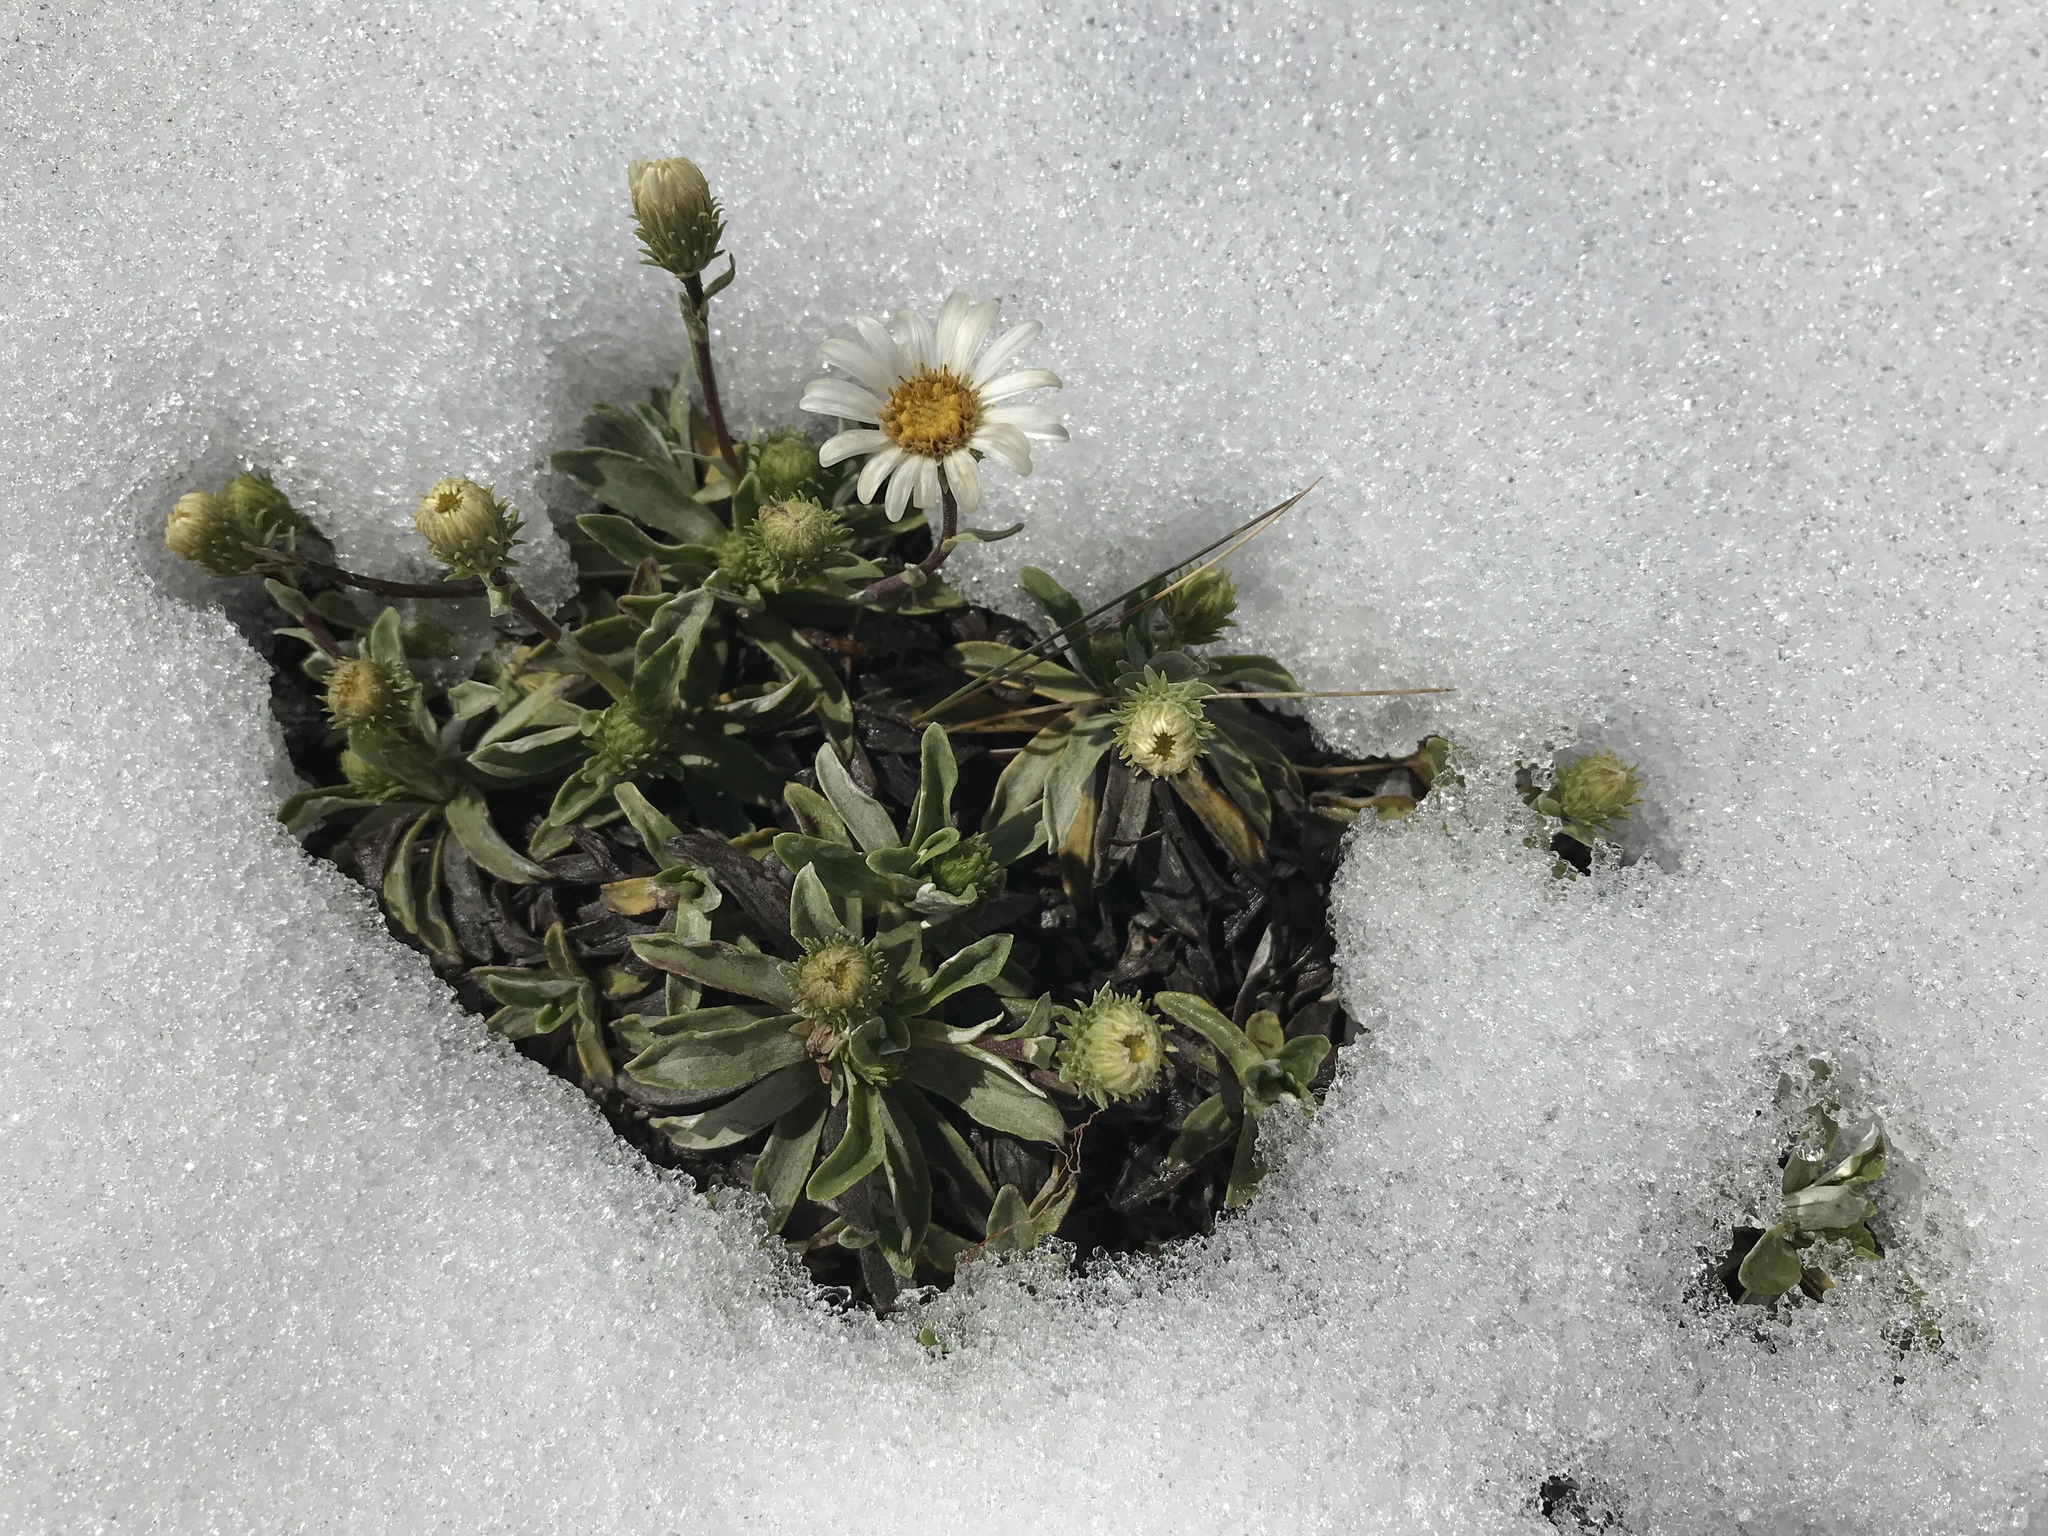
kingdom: Plantae
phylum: Tracheophyta
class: Magnoliopsida
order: Asterales
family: Asteraceae
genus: Celmisia
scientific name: Celmisia angustifolia
